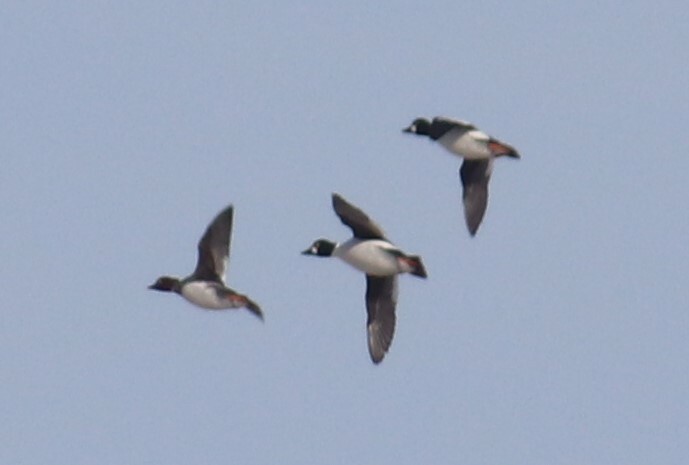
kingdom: Animalia
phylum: Chordata
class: Aves
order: Anseriformes
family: Anatidae
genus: Bucephala
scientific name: Bucephala clangula
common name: Common goldeneye
